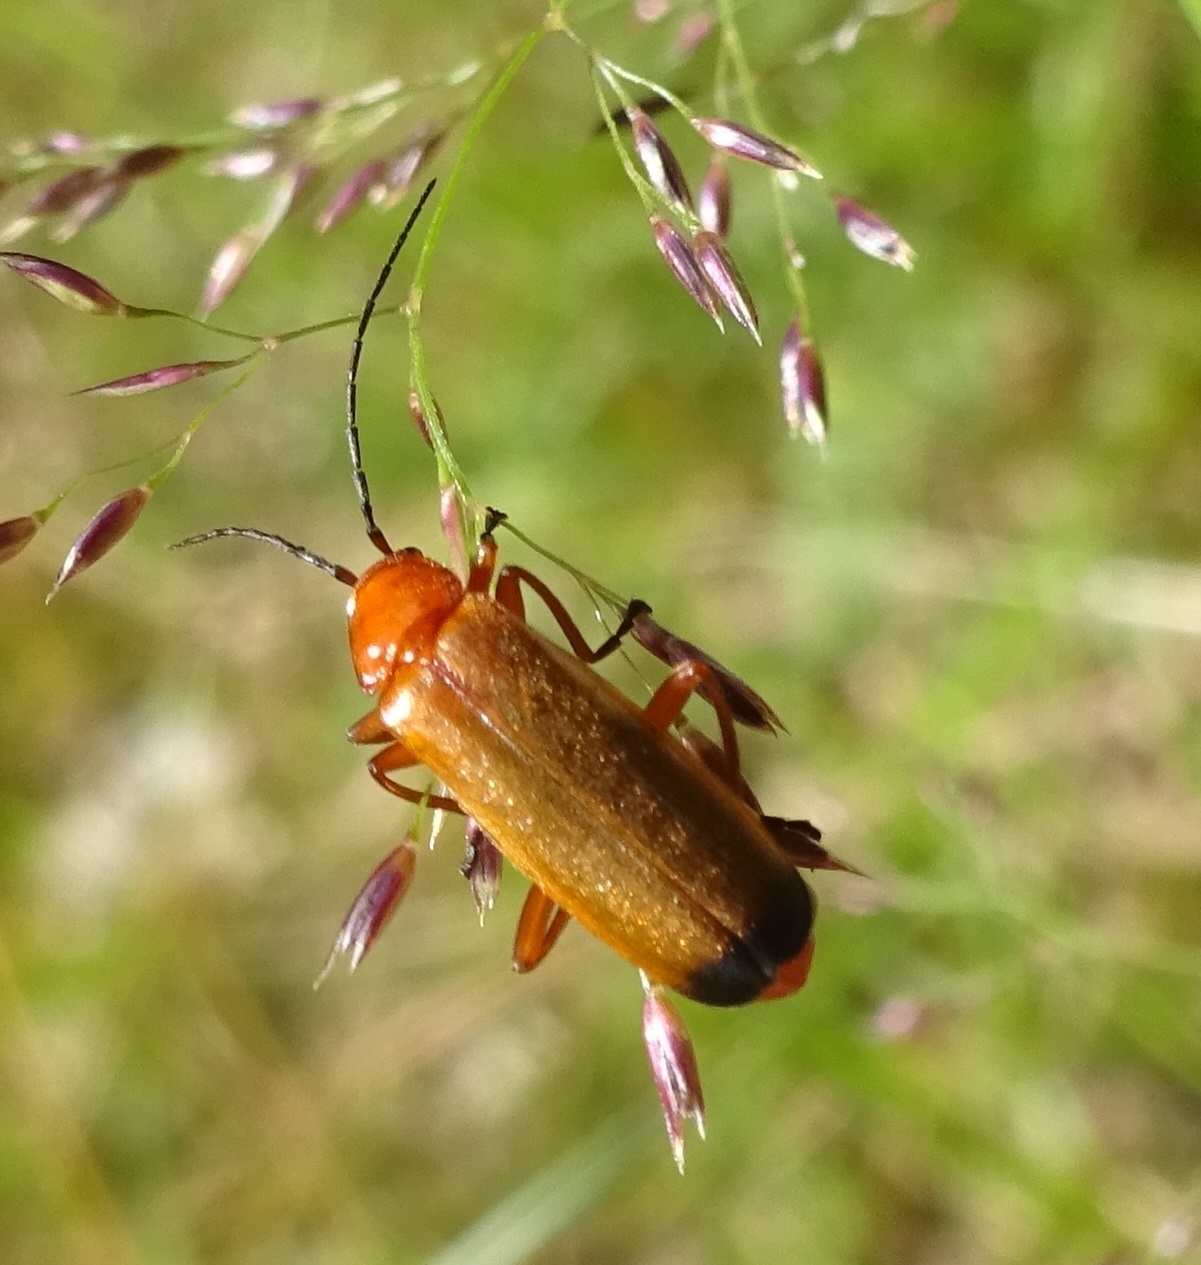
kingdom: Animalia
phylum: Arthropoda
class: Insecta
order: Coleoptera
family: Cantharidae
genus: Rhagonycha
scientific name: Rhagonycha fulva
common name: Common red soldier beetle
